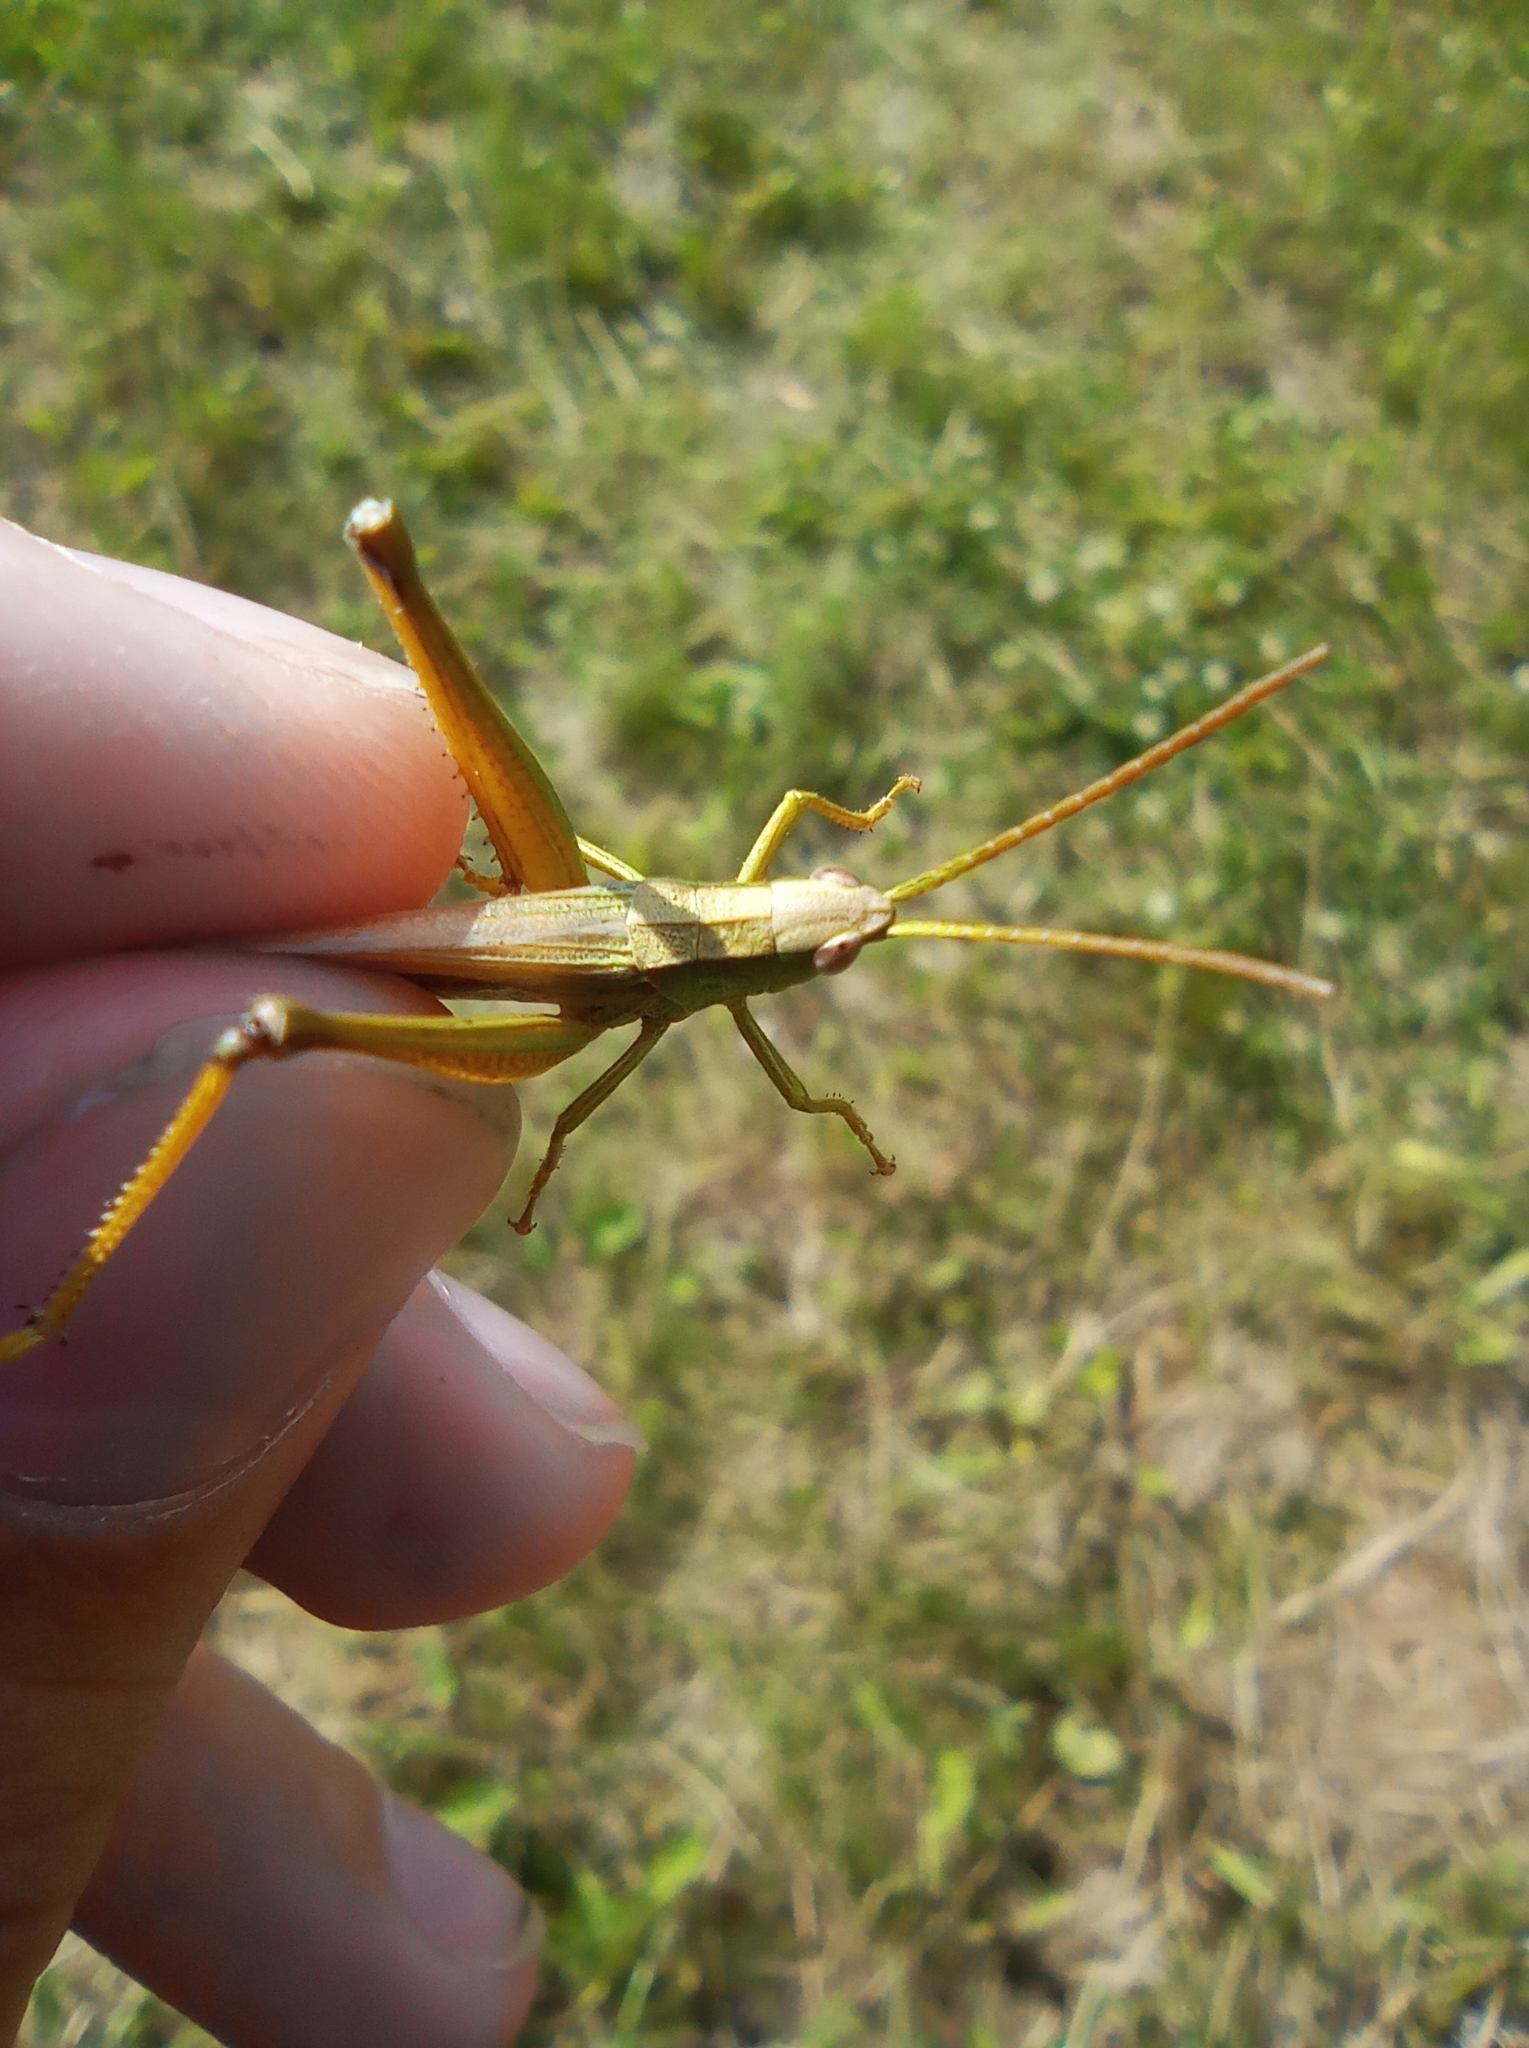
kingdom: Animalia
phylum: Arthropoda
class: Insecta
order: Orthoptera
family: Acrididae
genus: Chrysochraon
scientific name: Chrysochraon dispar
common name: Large gold grasshopper
